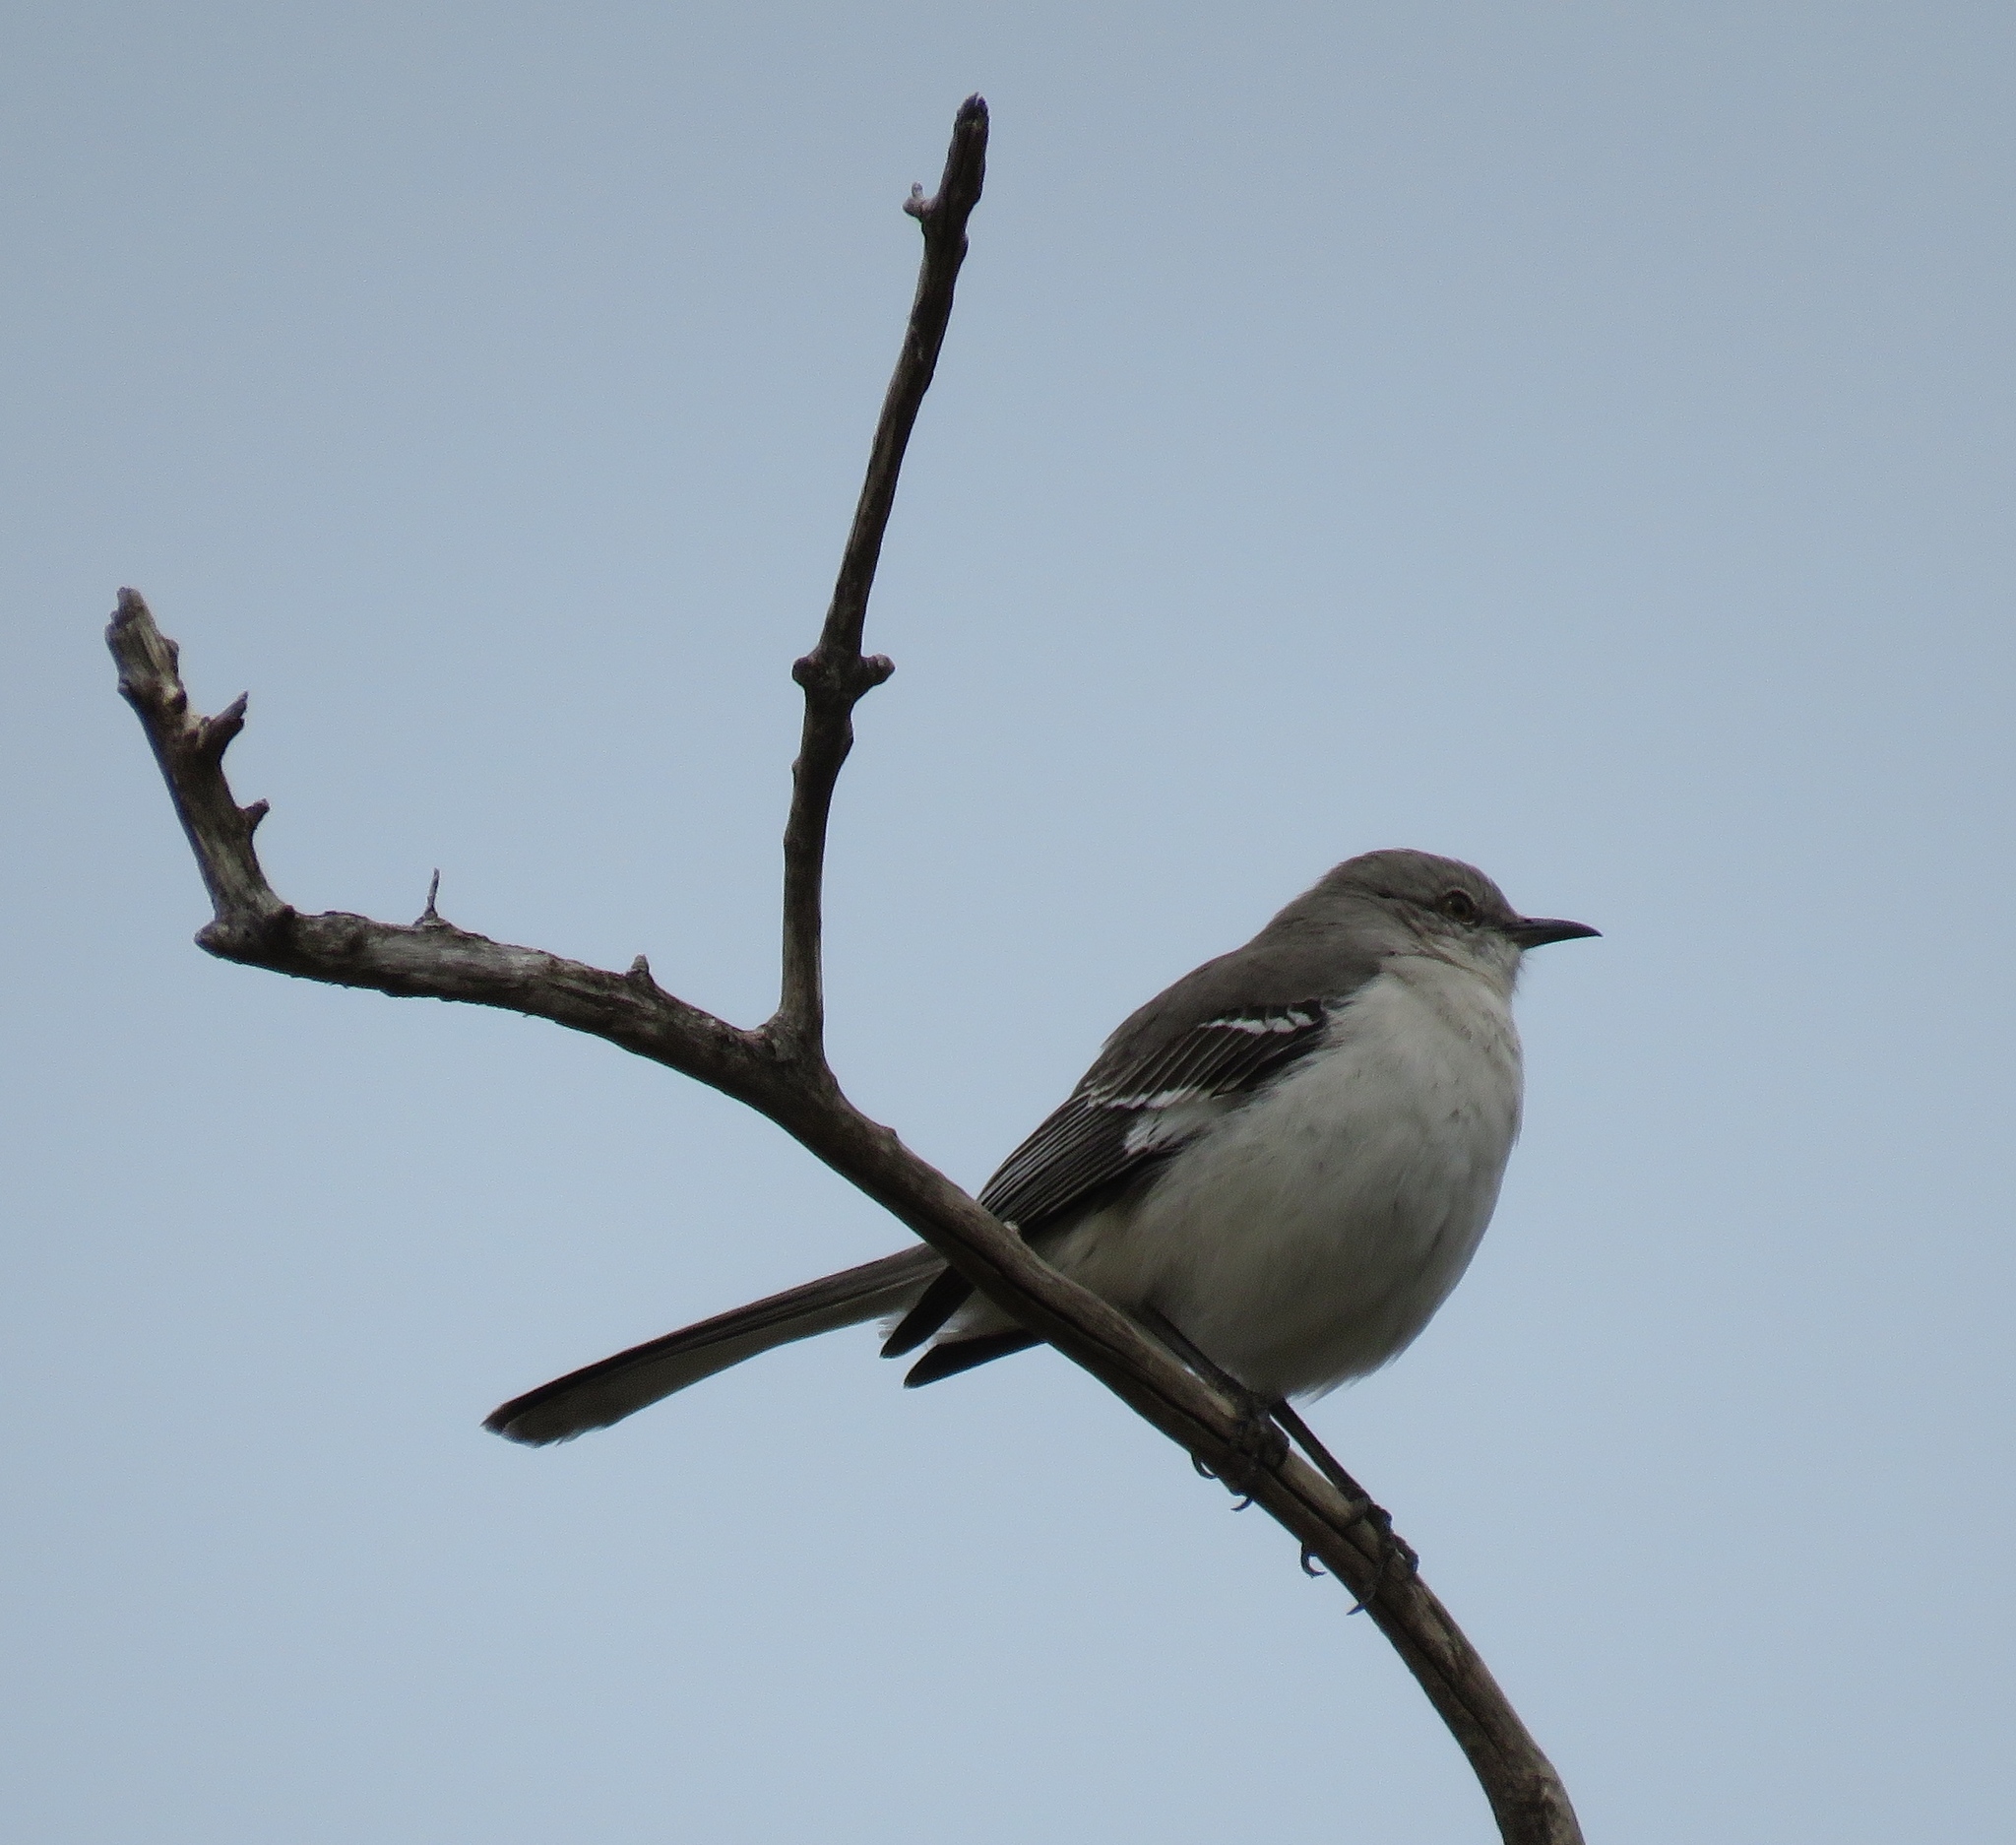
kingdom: Animalia
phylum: Chordata
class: Aves
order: Passeriformes
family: Mimidae
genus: Mimus
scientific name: Mimus polyglottos
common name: Northern mockingbird
